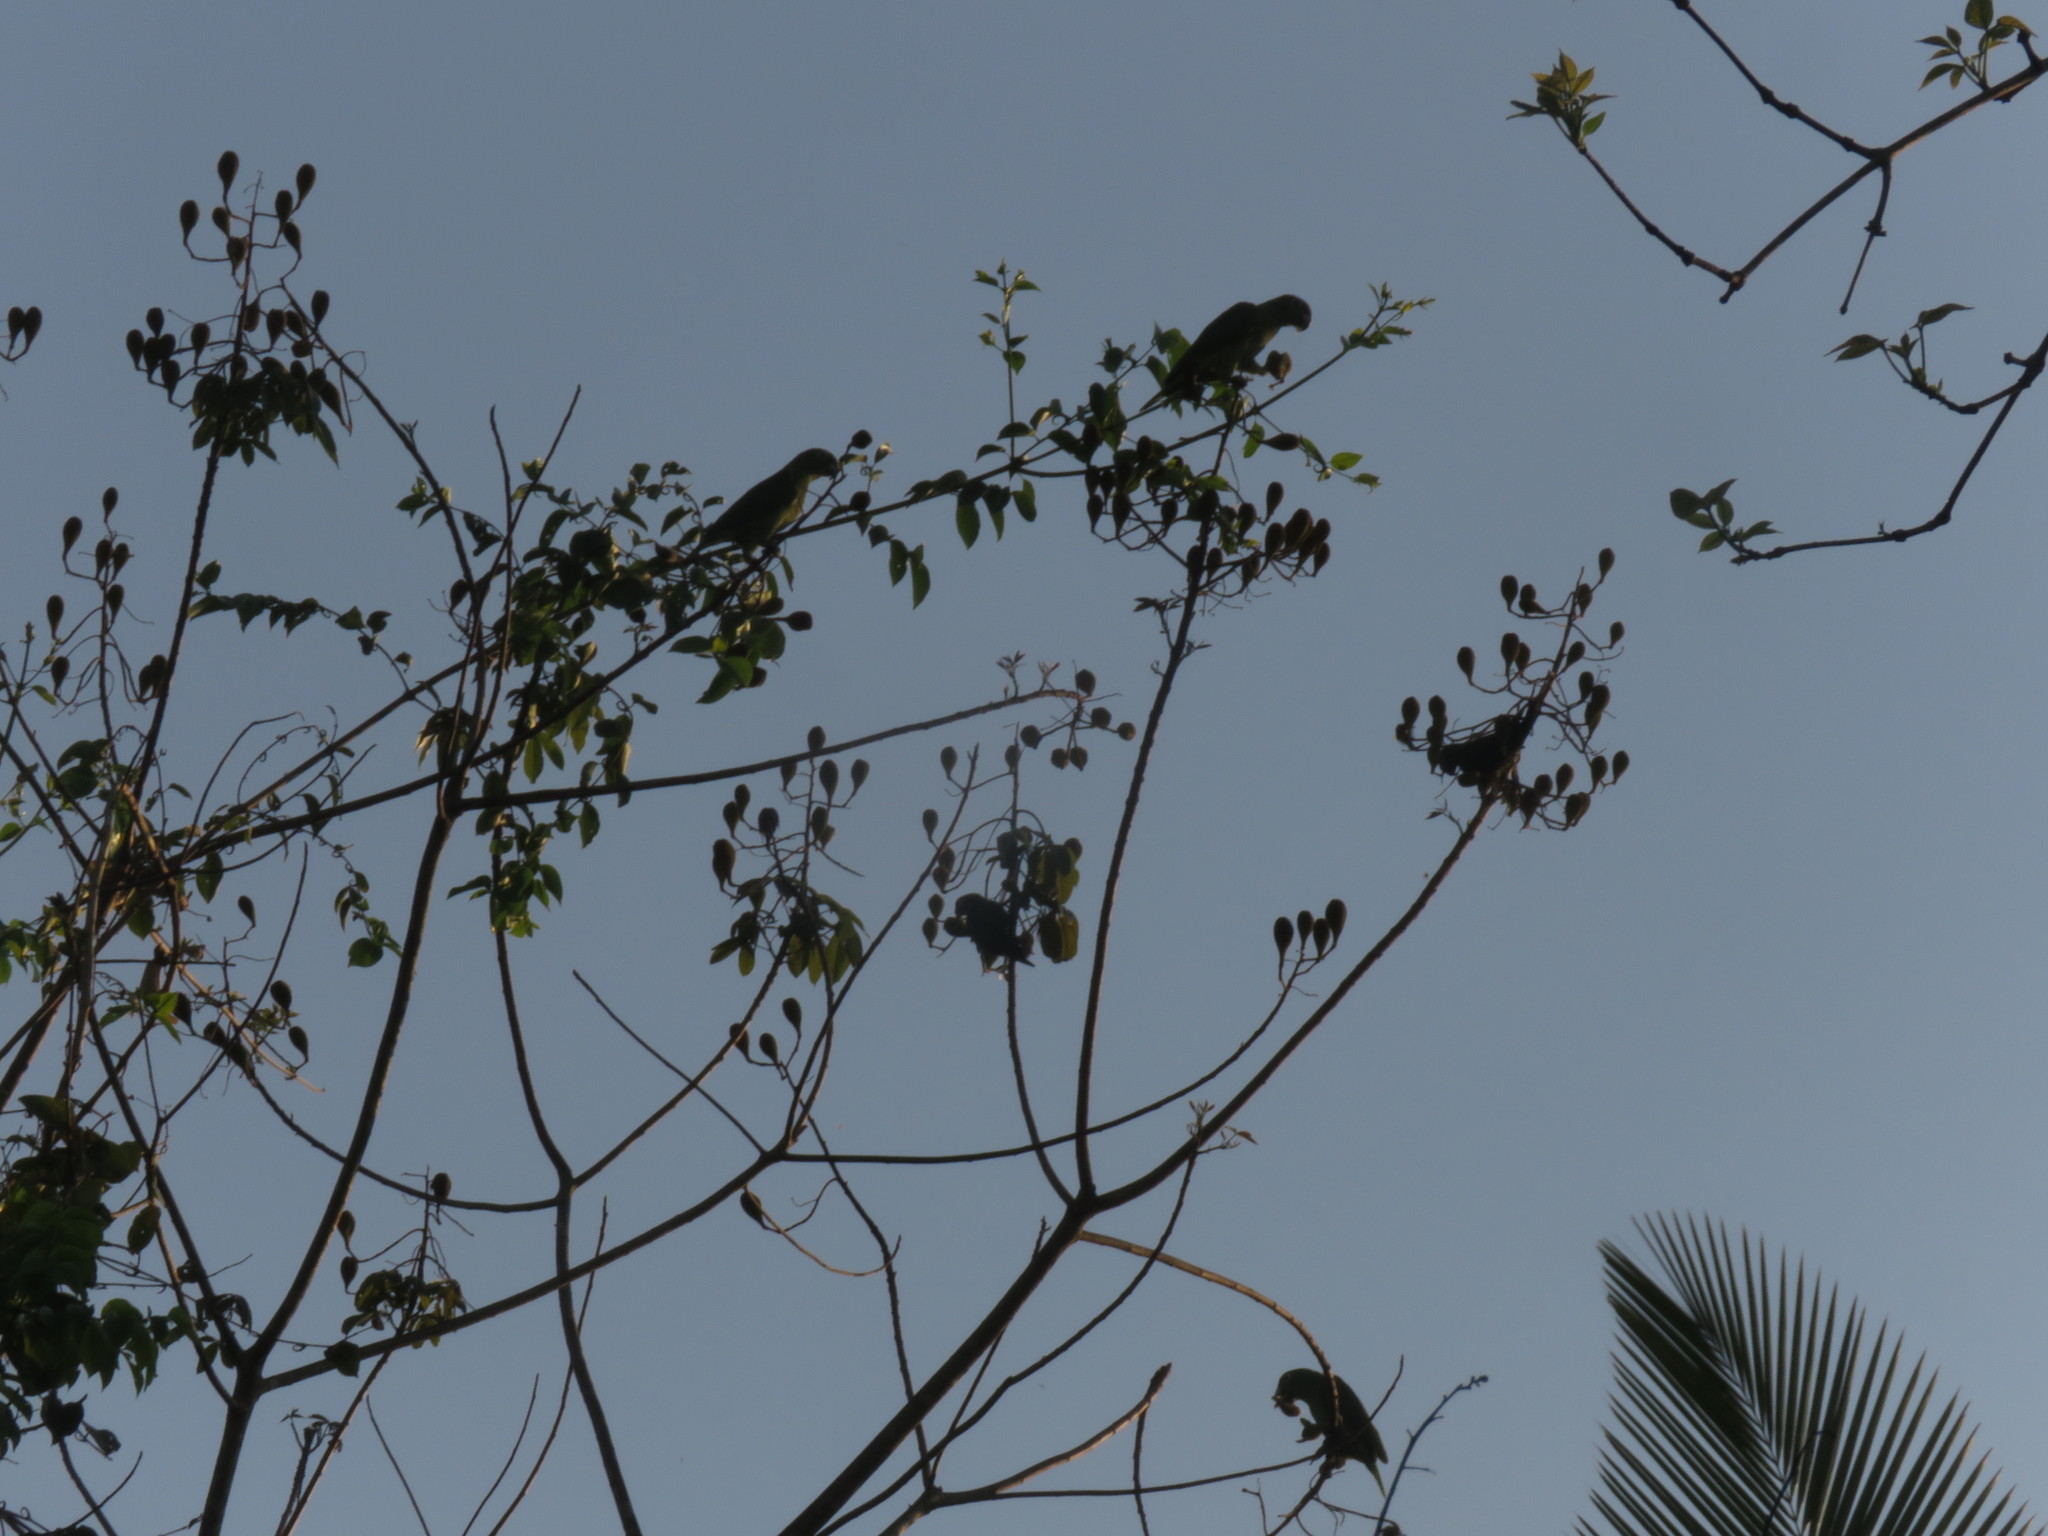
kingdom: Animalia
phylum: Chordata
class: Aves
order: Psittaciformes
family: Psittacidae
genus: Amazona
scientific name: Amazona ochrocephala
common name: Yellow-crowned amazon
